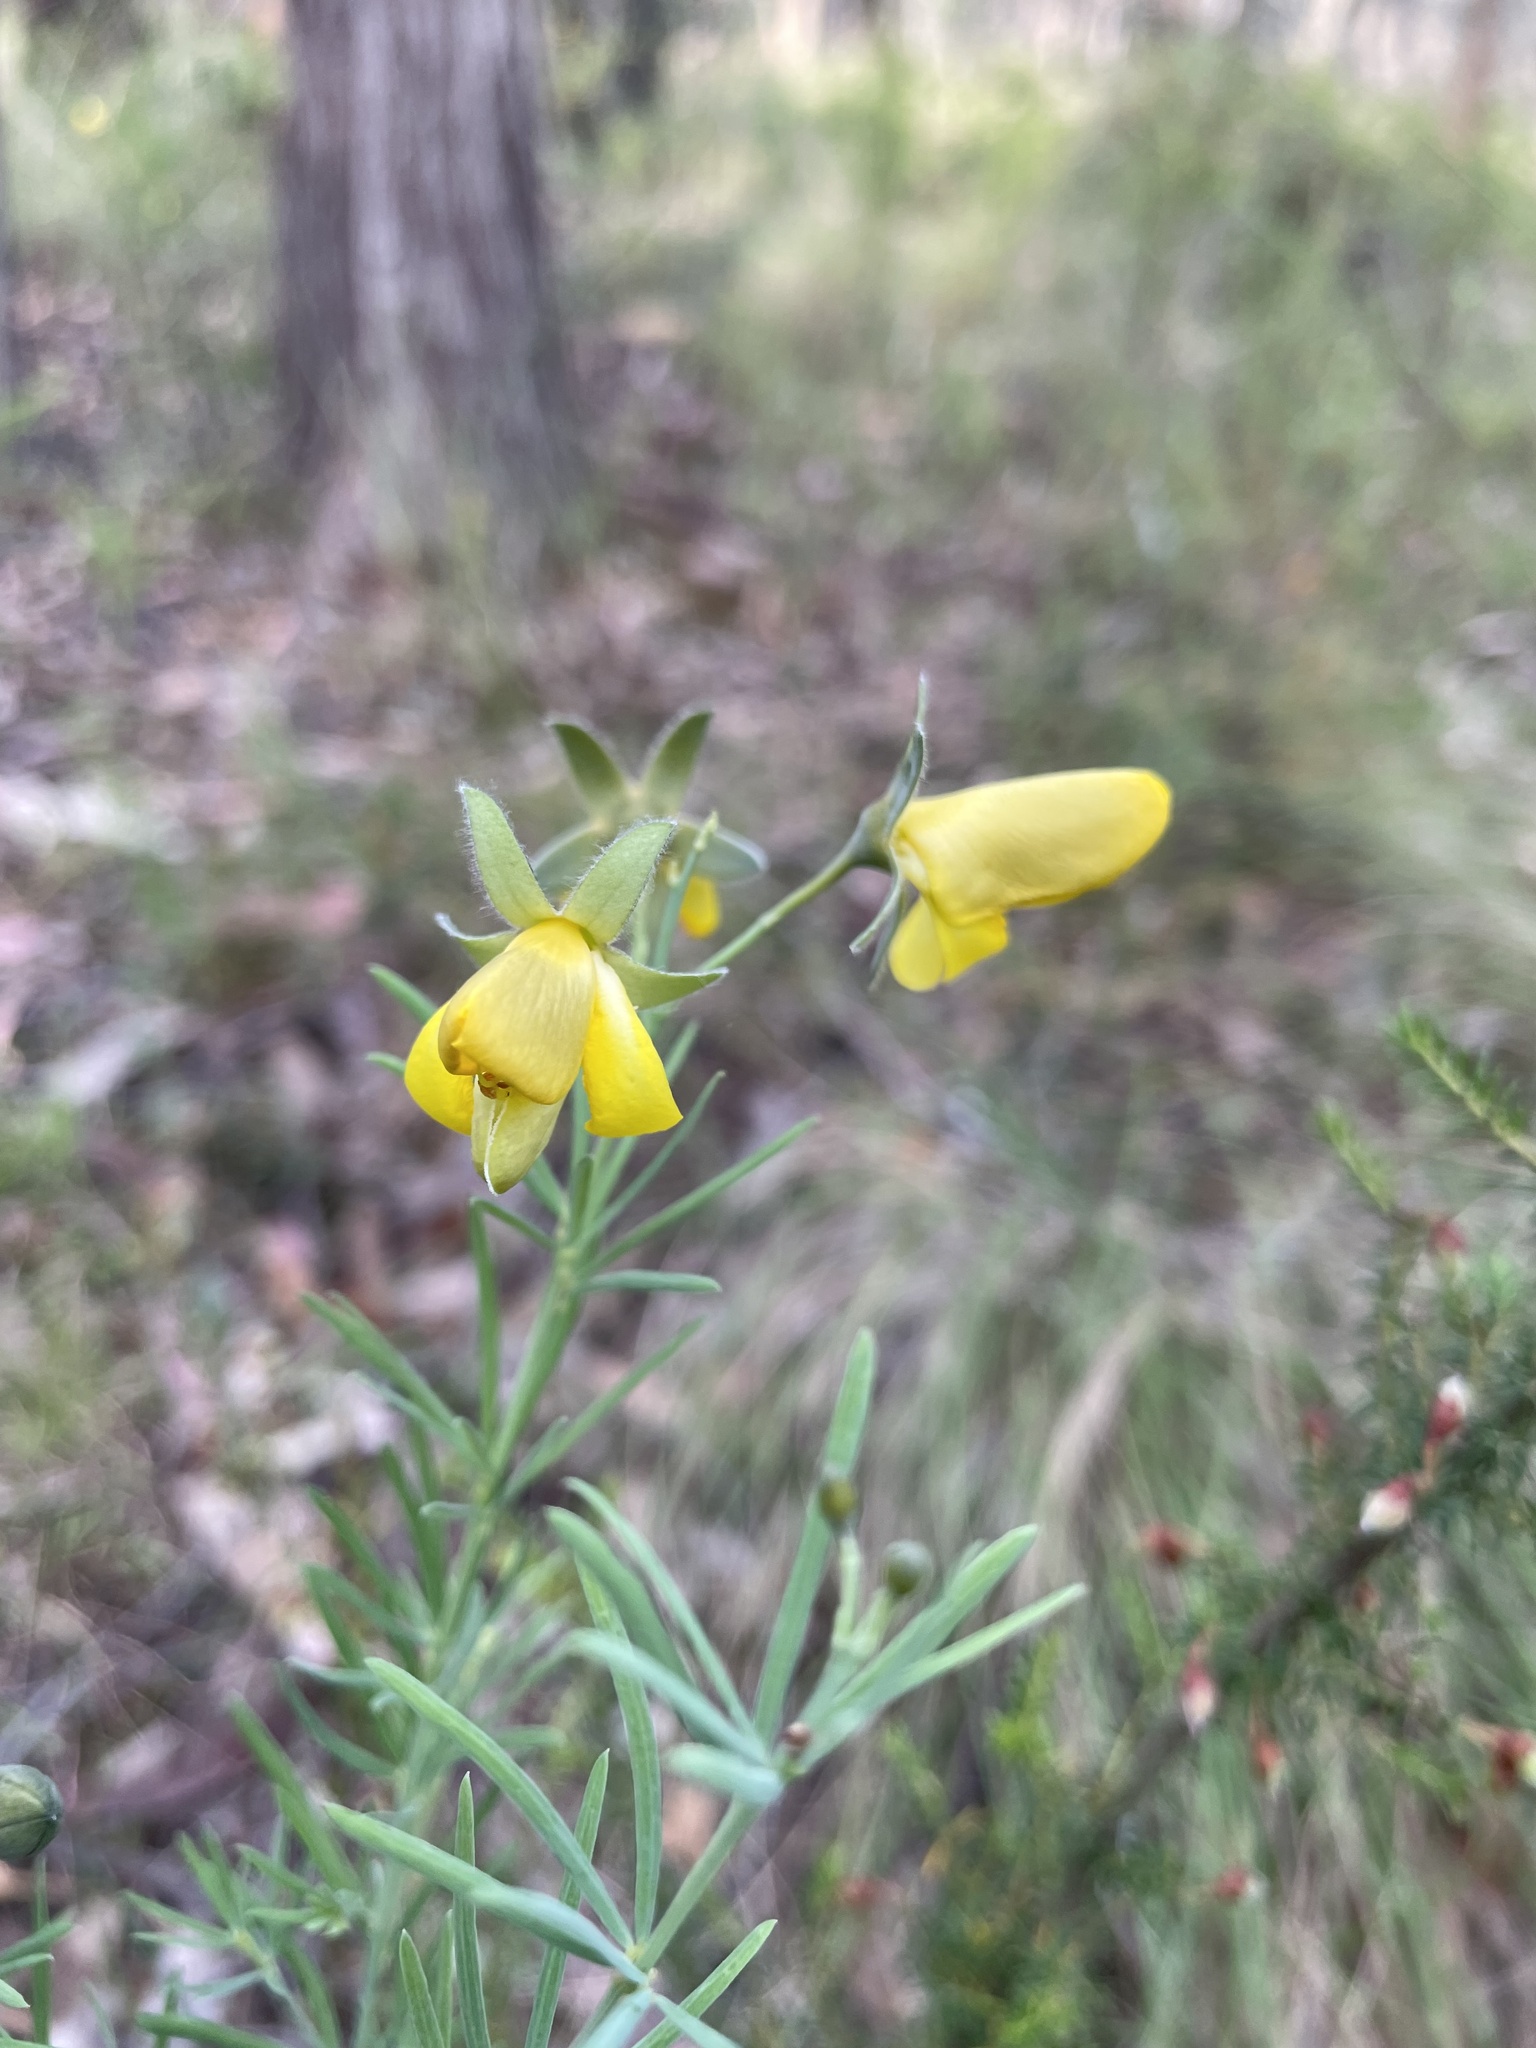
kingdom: Plantae
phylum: Tracheophyta
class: Magnoliopsida
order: Fabales
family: Fabaceae
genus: Gompholobium
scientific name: Gompholobium huegelii
